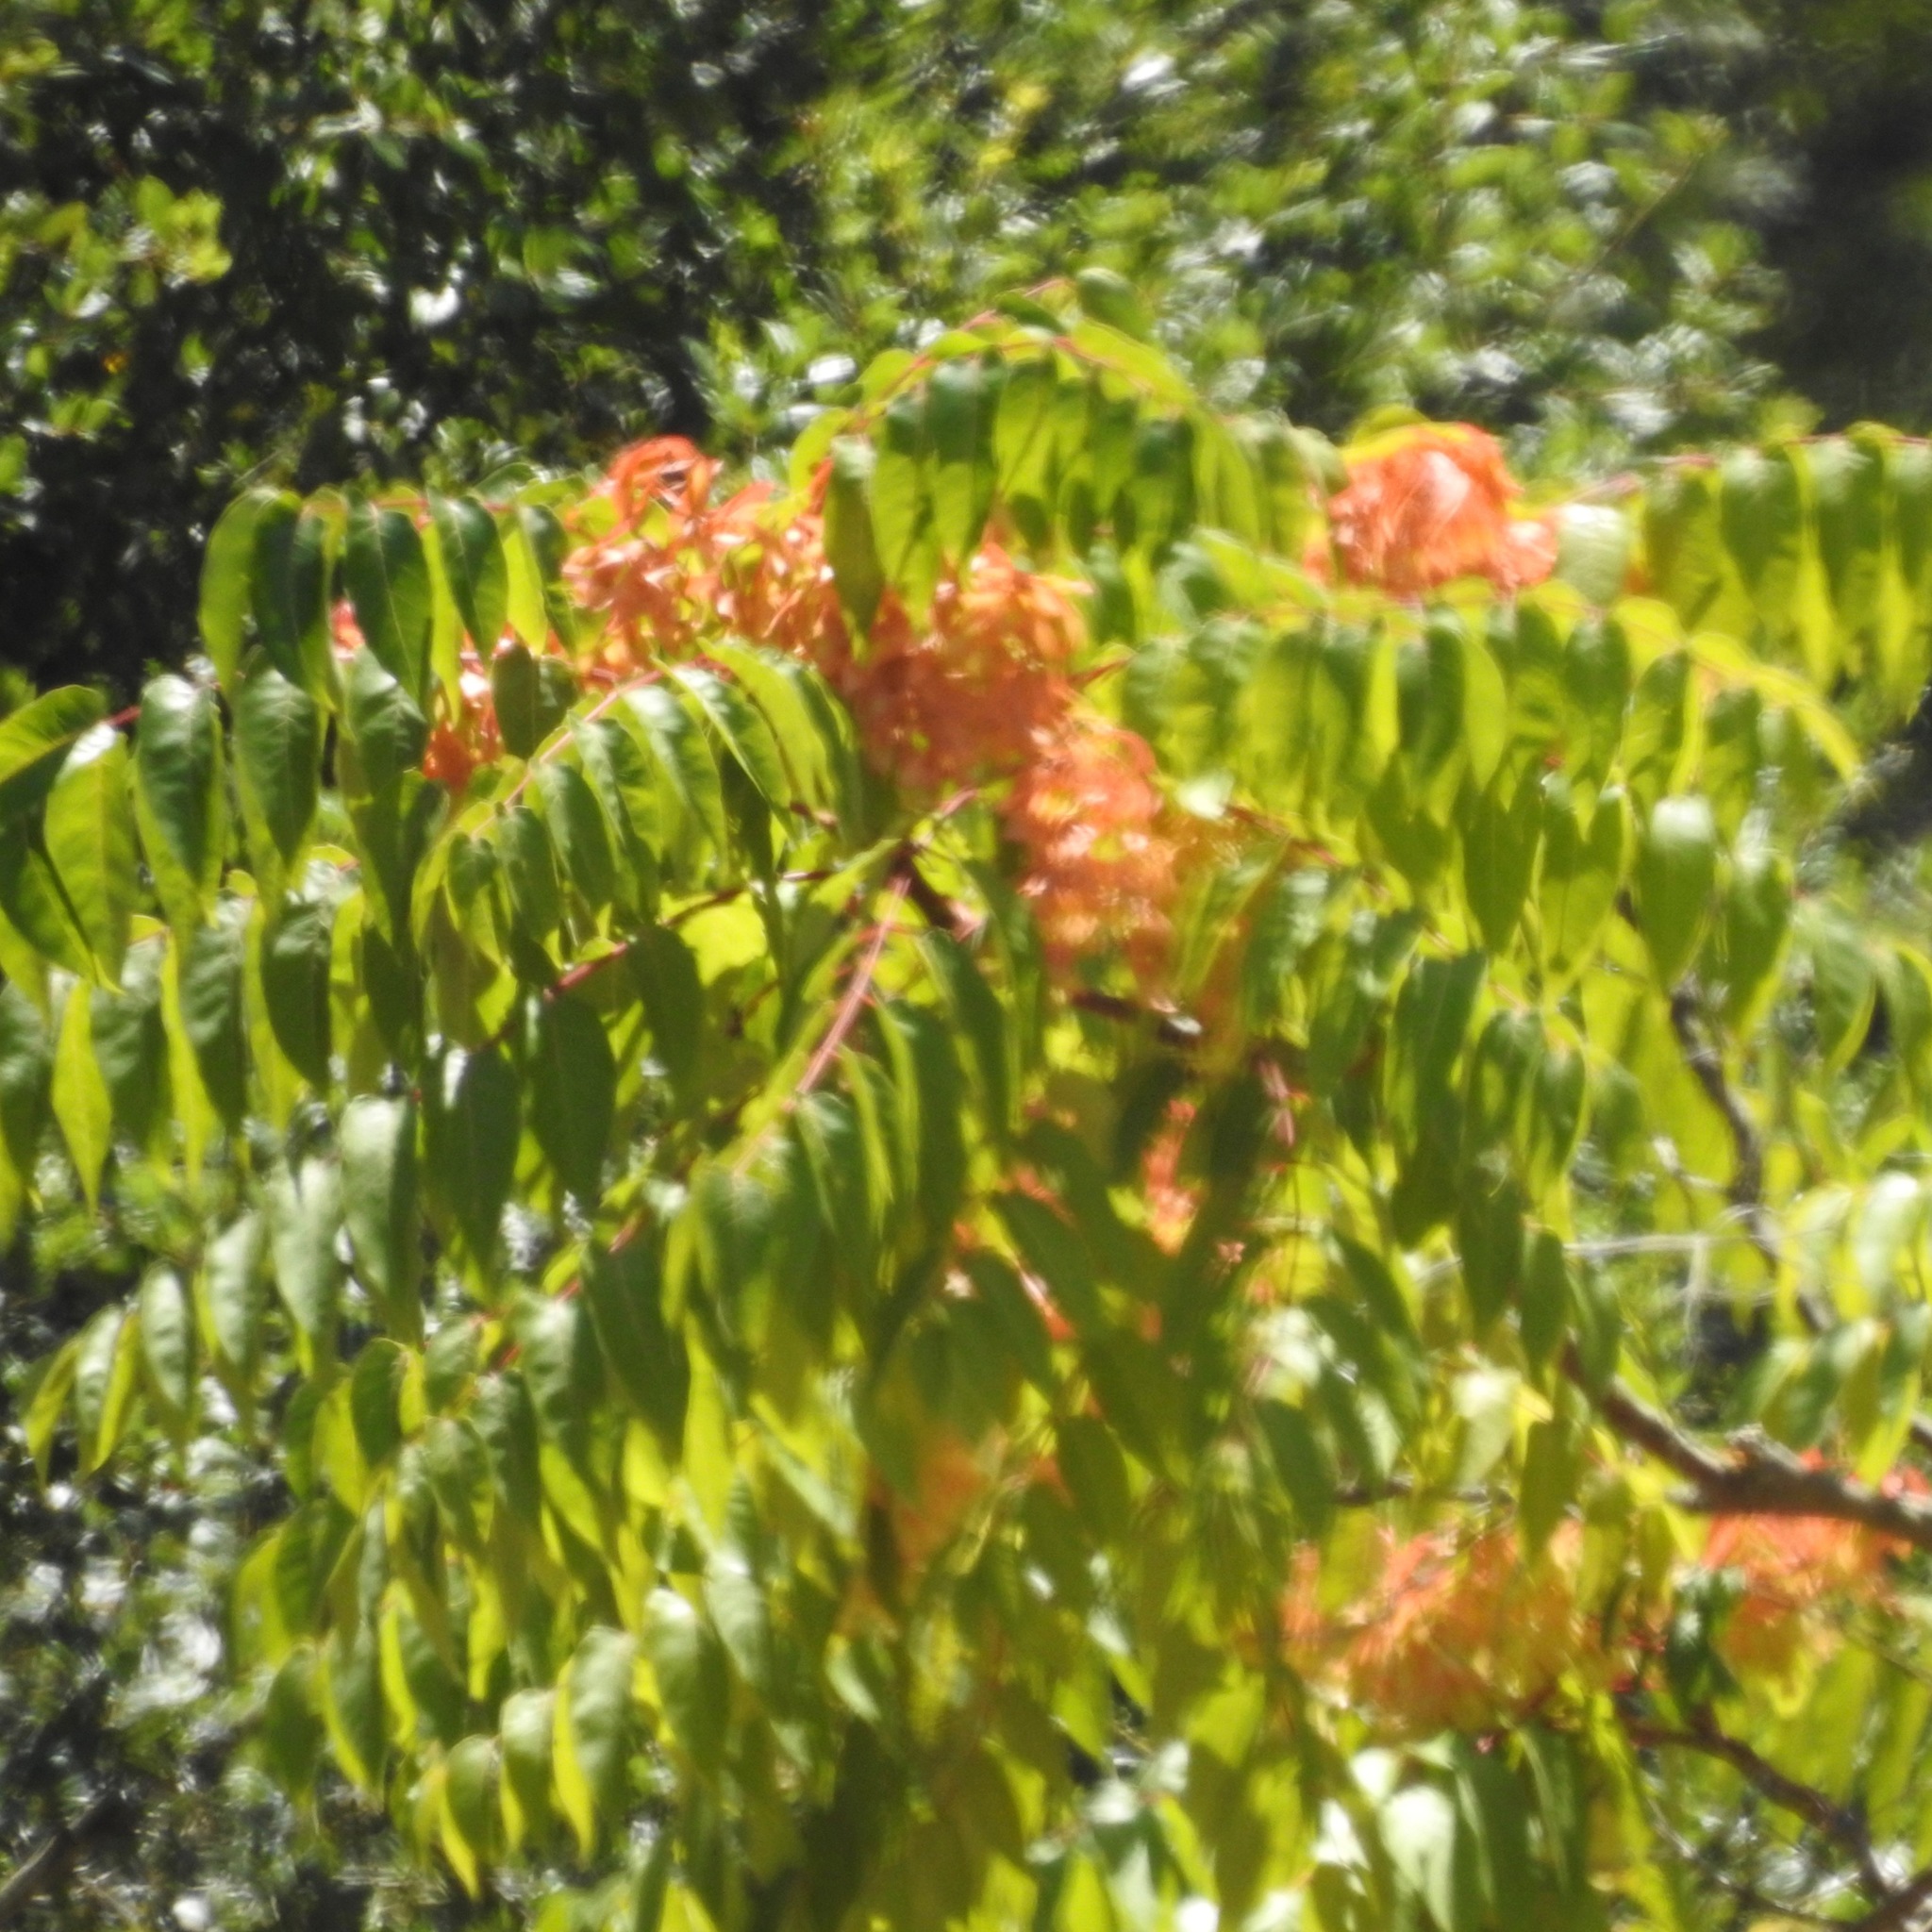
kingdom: Plantae
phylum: Tracheophyta
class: Magnoliopsida
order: Sapindales
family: Simaroubaceae
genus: Ailanthus
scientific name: Ailanthus altissima
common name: Tree-of-heaven
